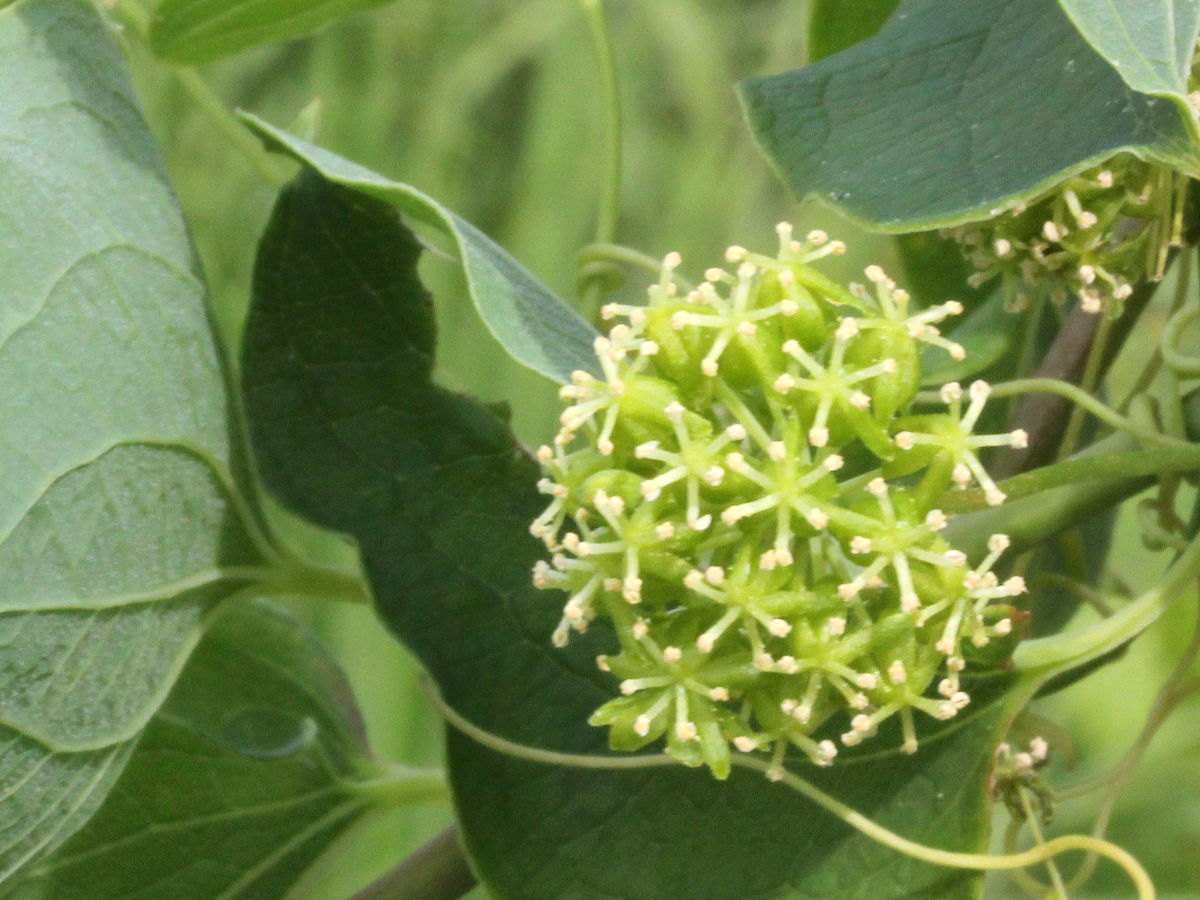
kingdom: Plantae
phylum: Tracheophyta
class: Liliopsida
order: Liliales
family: Smilacaceae
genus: Smilax
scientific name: Smilax lasioneura
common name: Blue ridge carrionflower
